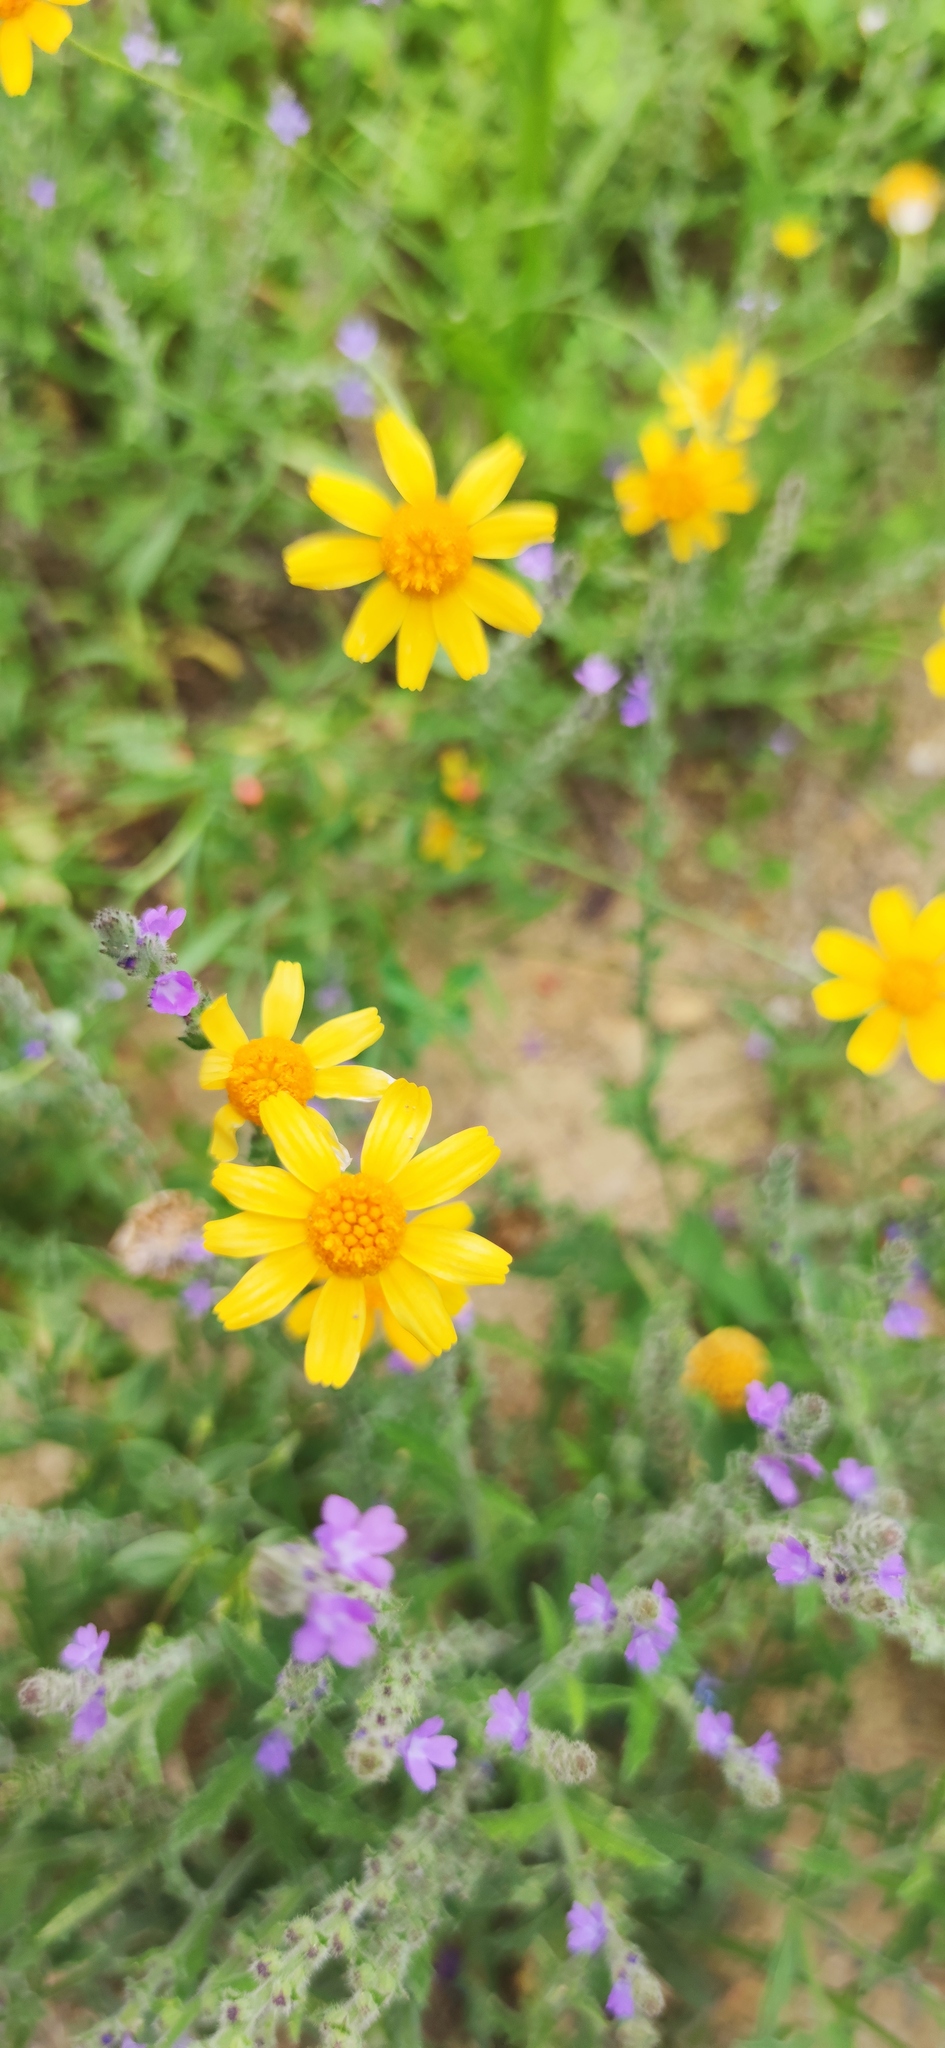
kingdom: Plantae
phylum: Tracheophyta
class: Magnoliopsida
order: Asterales
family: Asteraceae
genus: Tetraneuris
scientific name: Tetraneuris linearifolia
